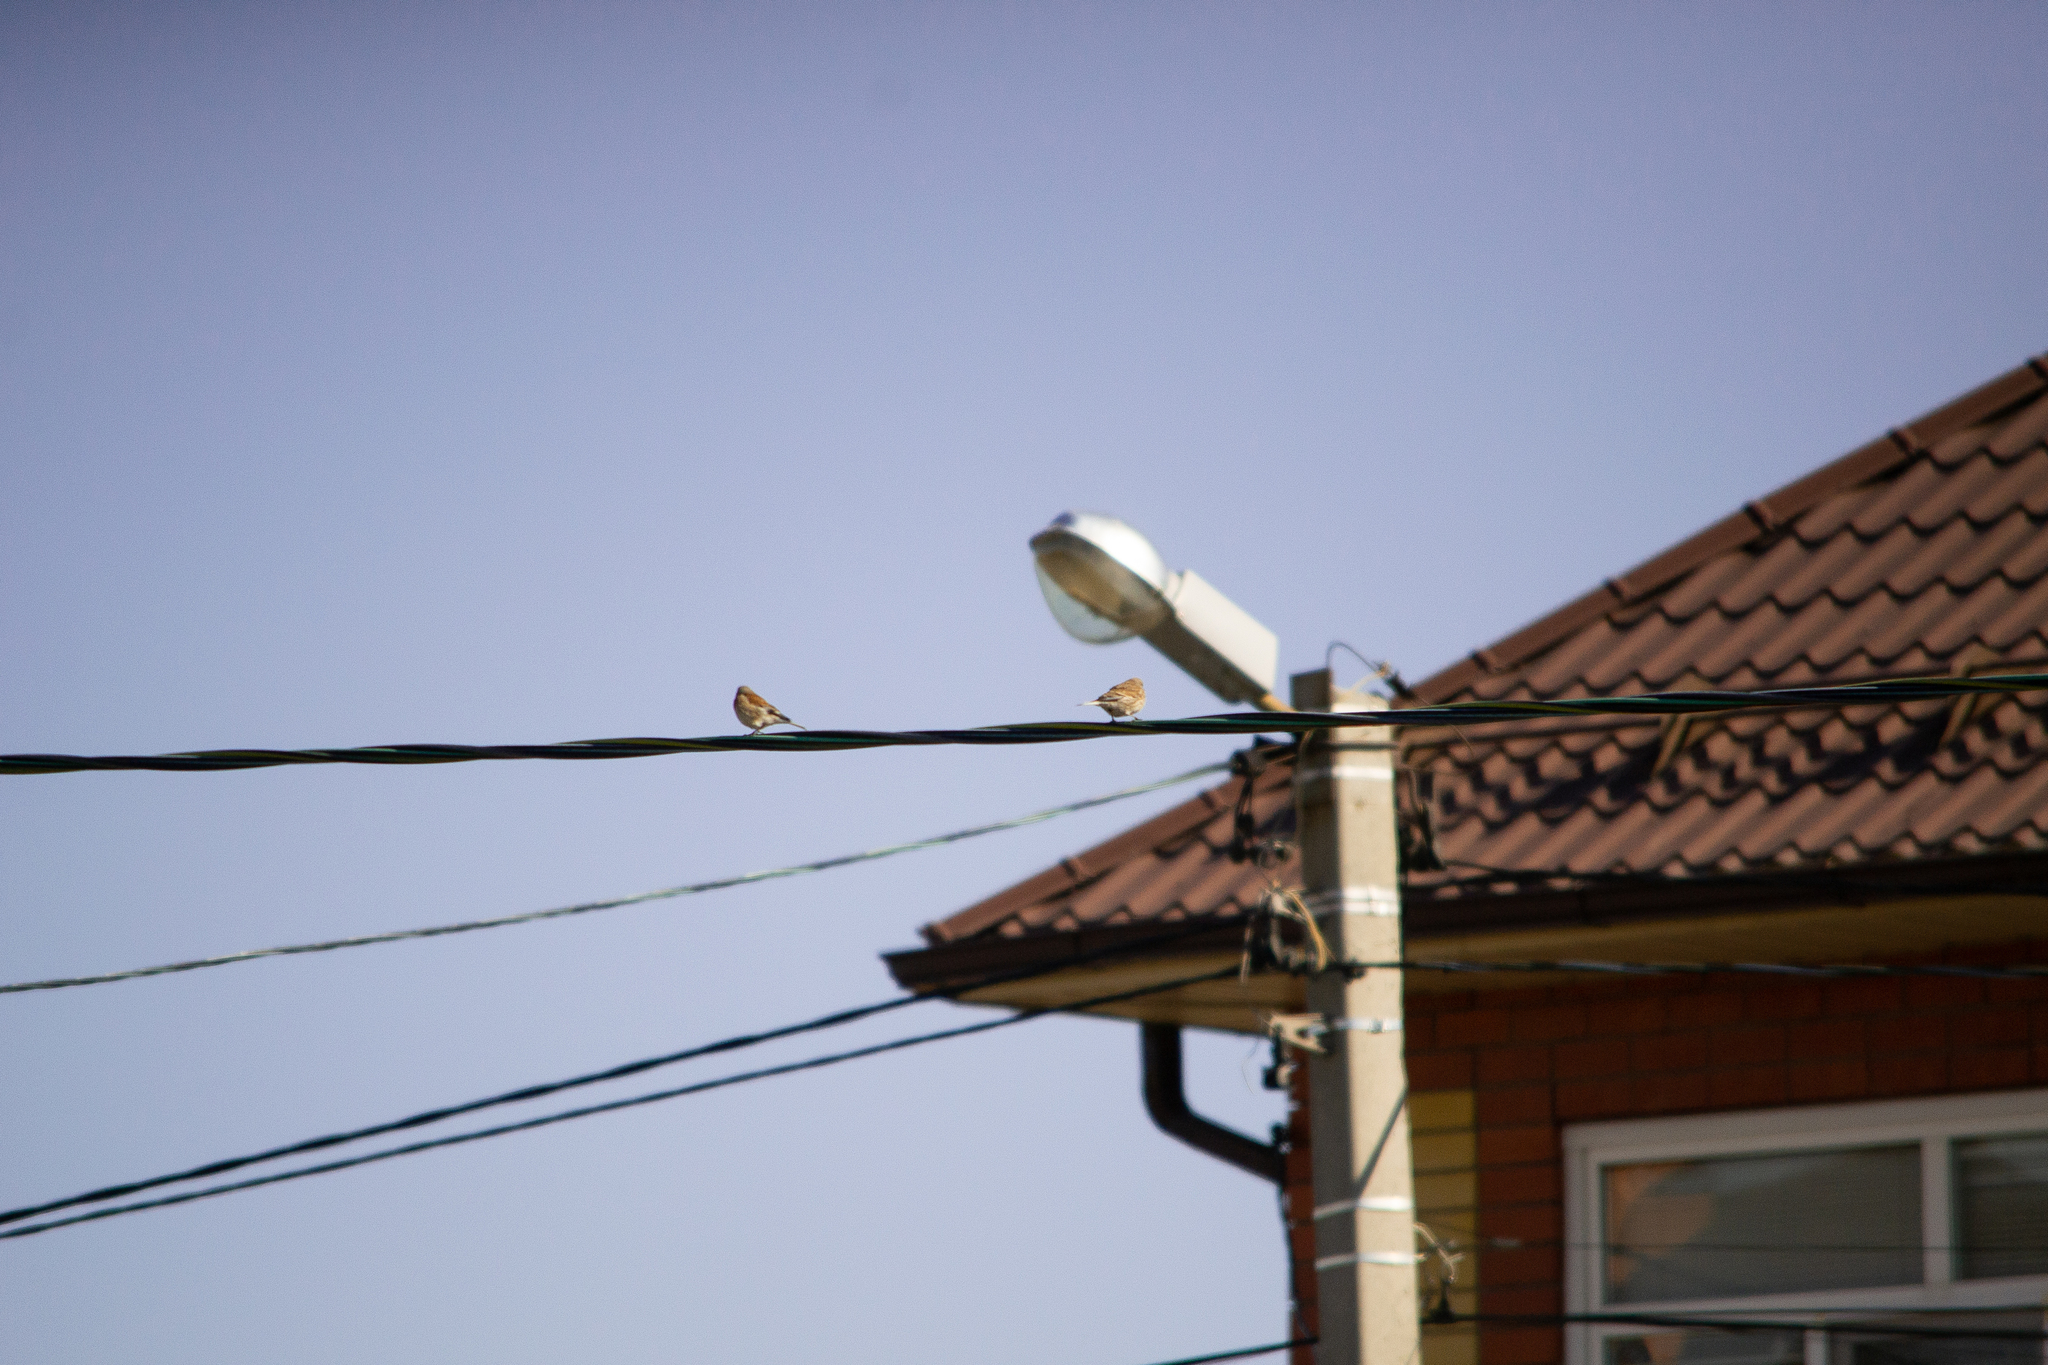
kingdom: Animalia
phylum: Chordata
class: Aves
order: Passeriformes
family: Fringillidae
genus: Linaria
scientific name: Linaria cannabina
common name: Common linnet
